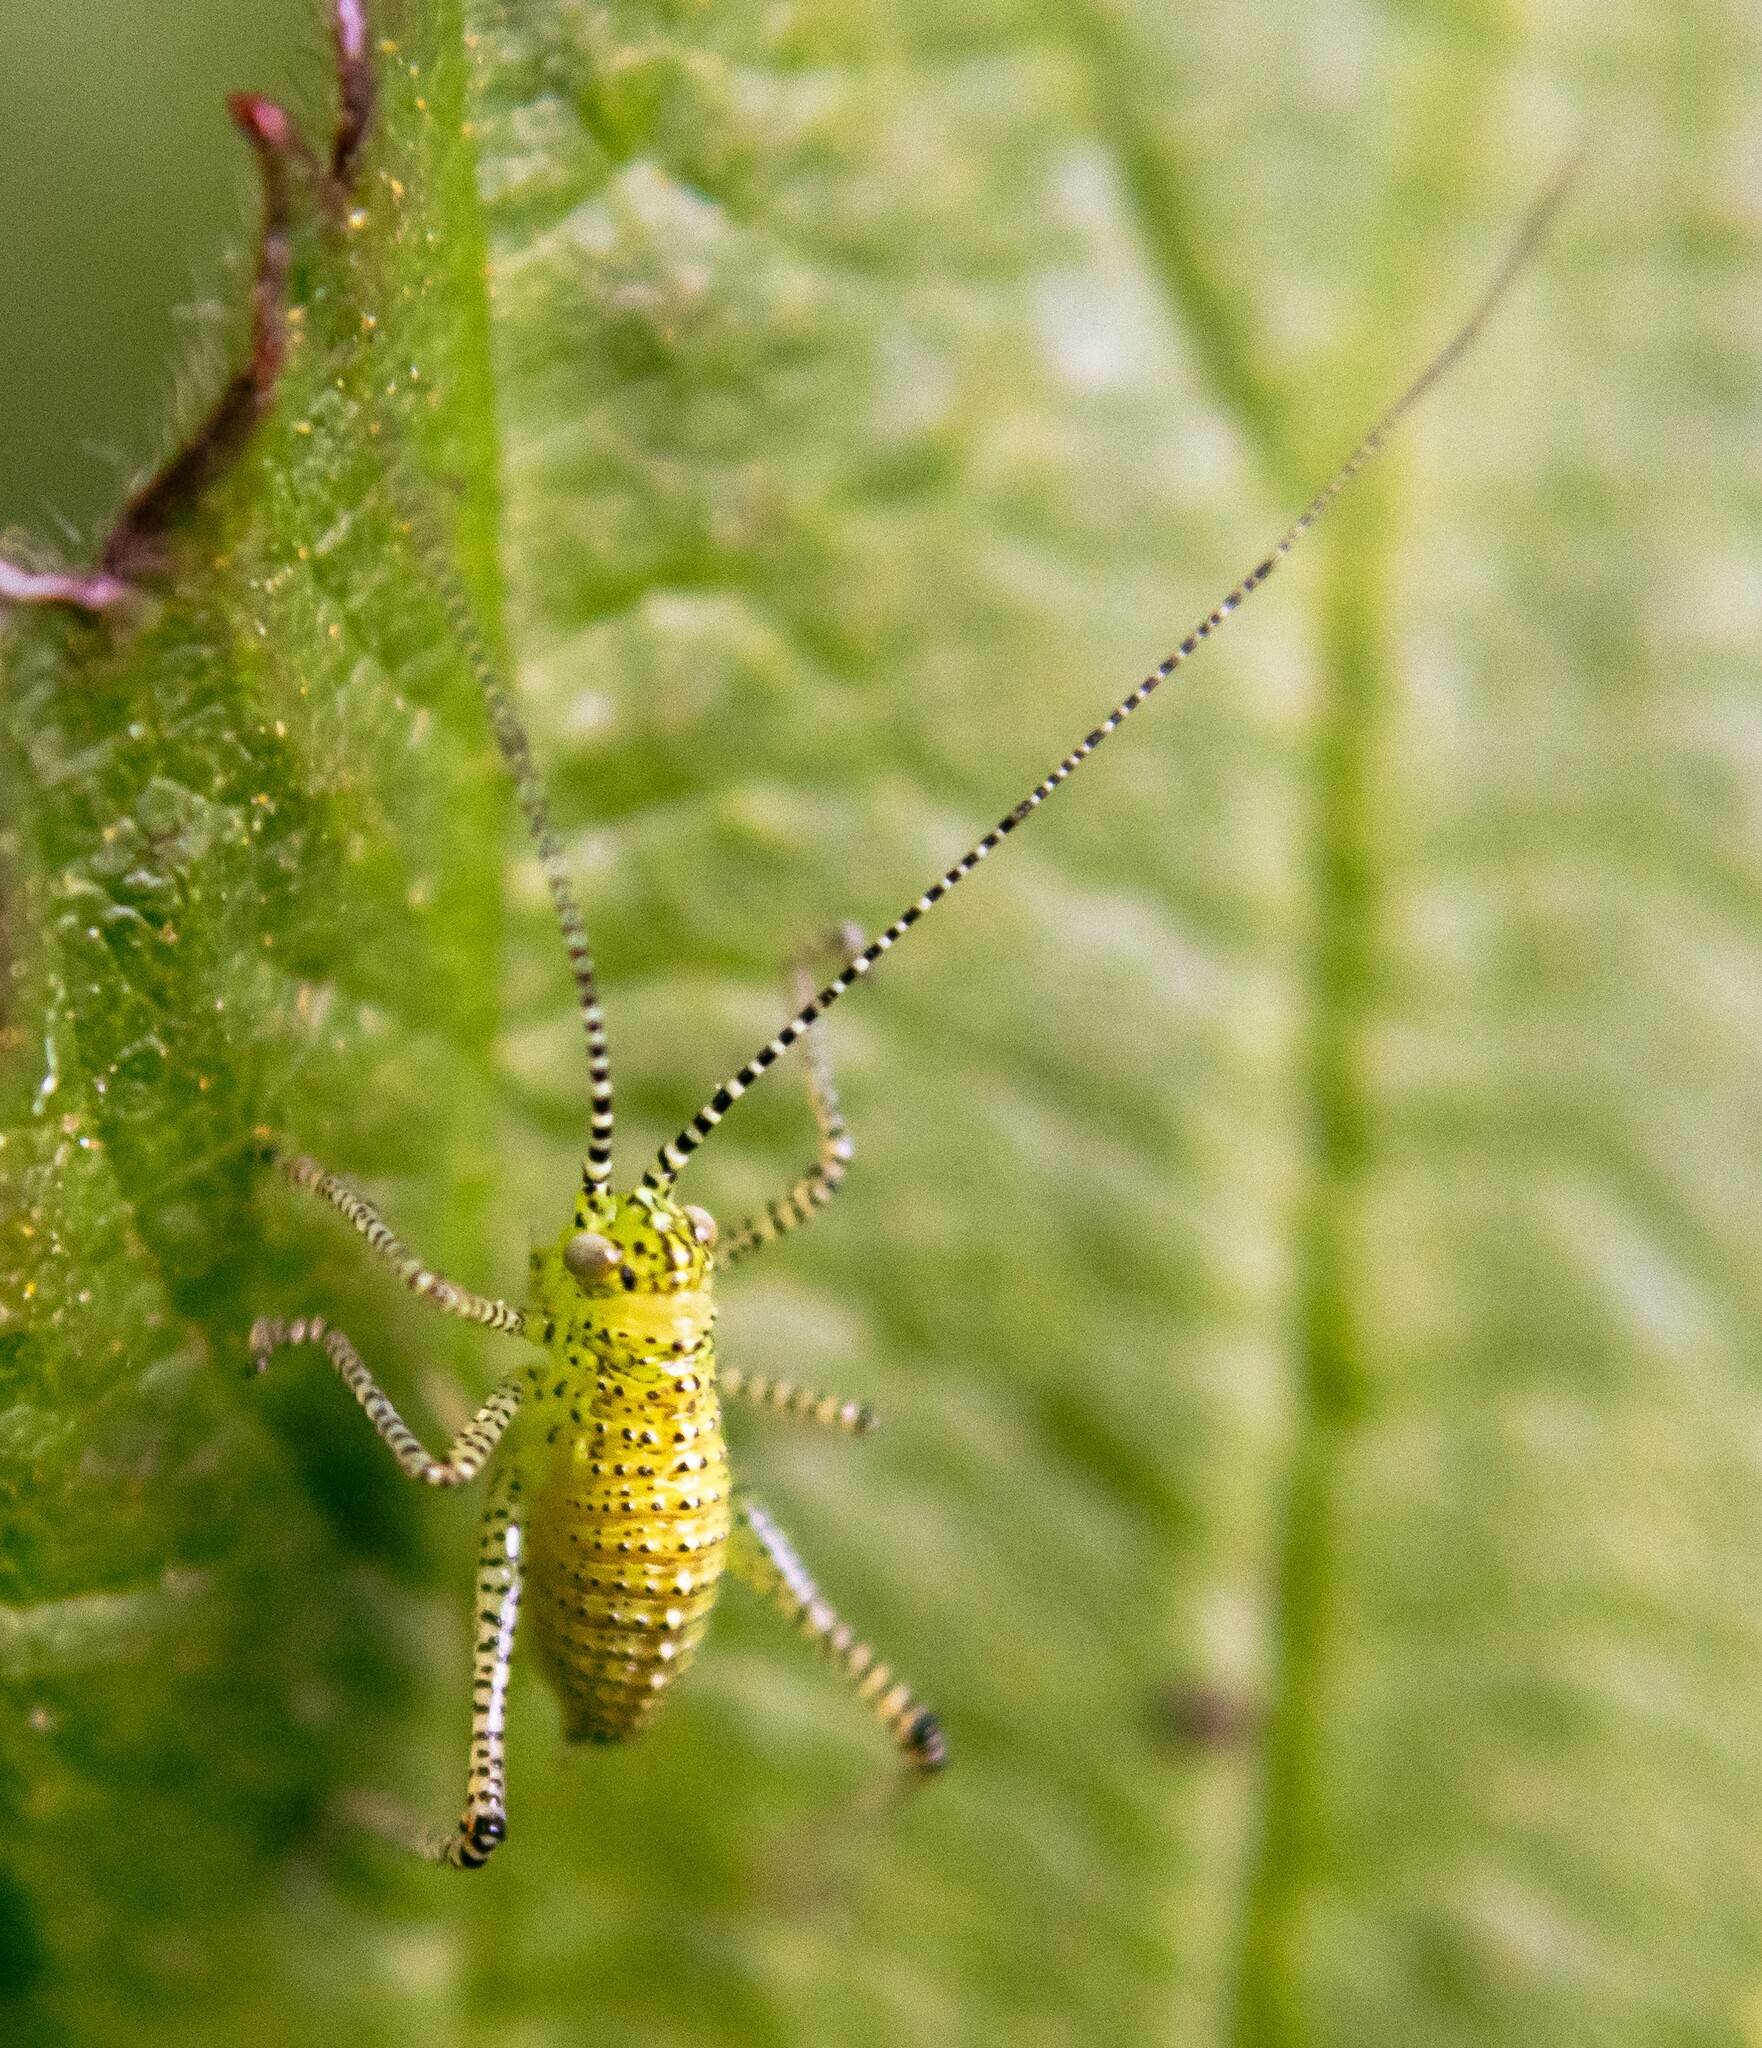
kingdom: Animalia
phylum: Arthropoda
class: Insecta
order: Orthoptera
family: Tettigoniidae
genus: Leptophyes
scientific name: Leptophyes punctatissima
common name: Speckled bush-cricket
